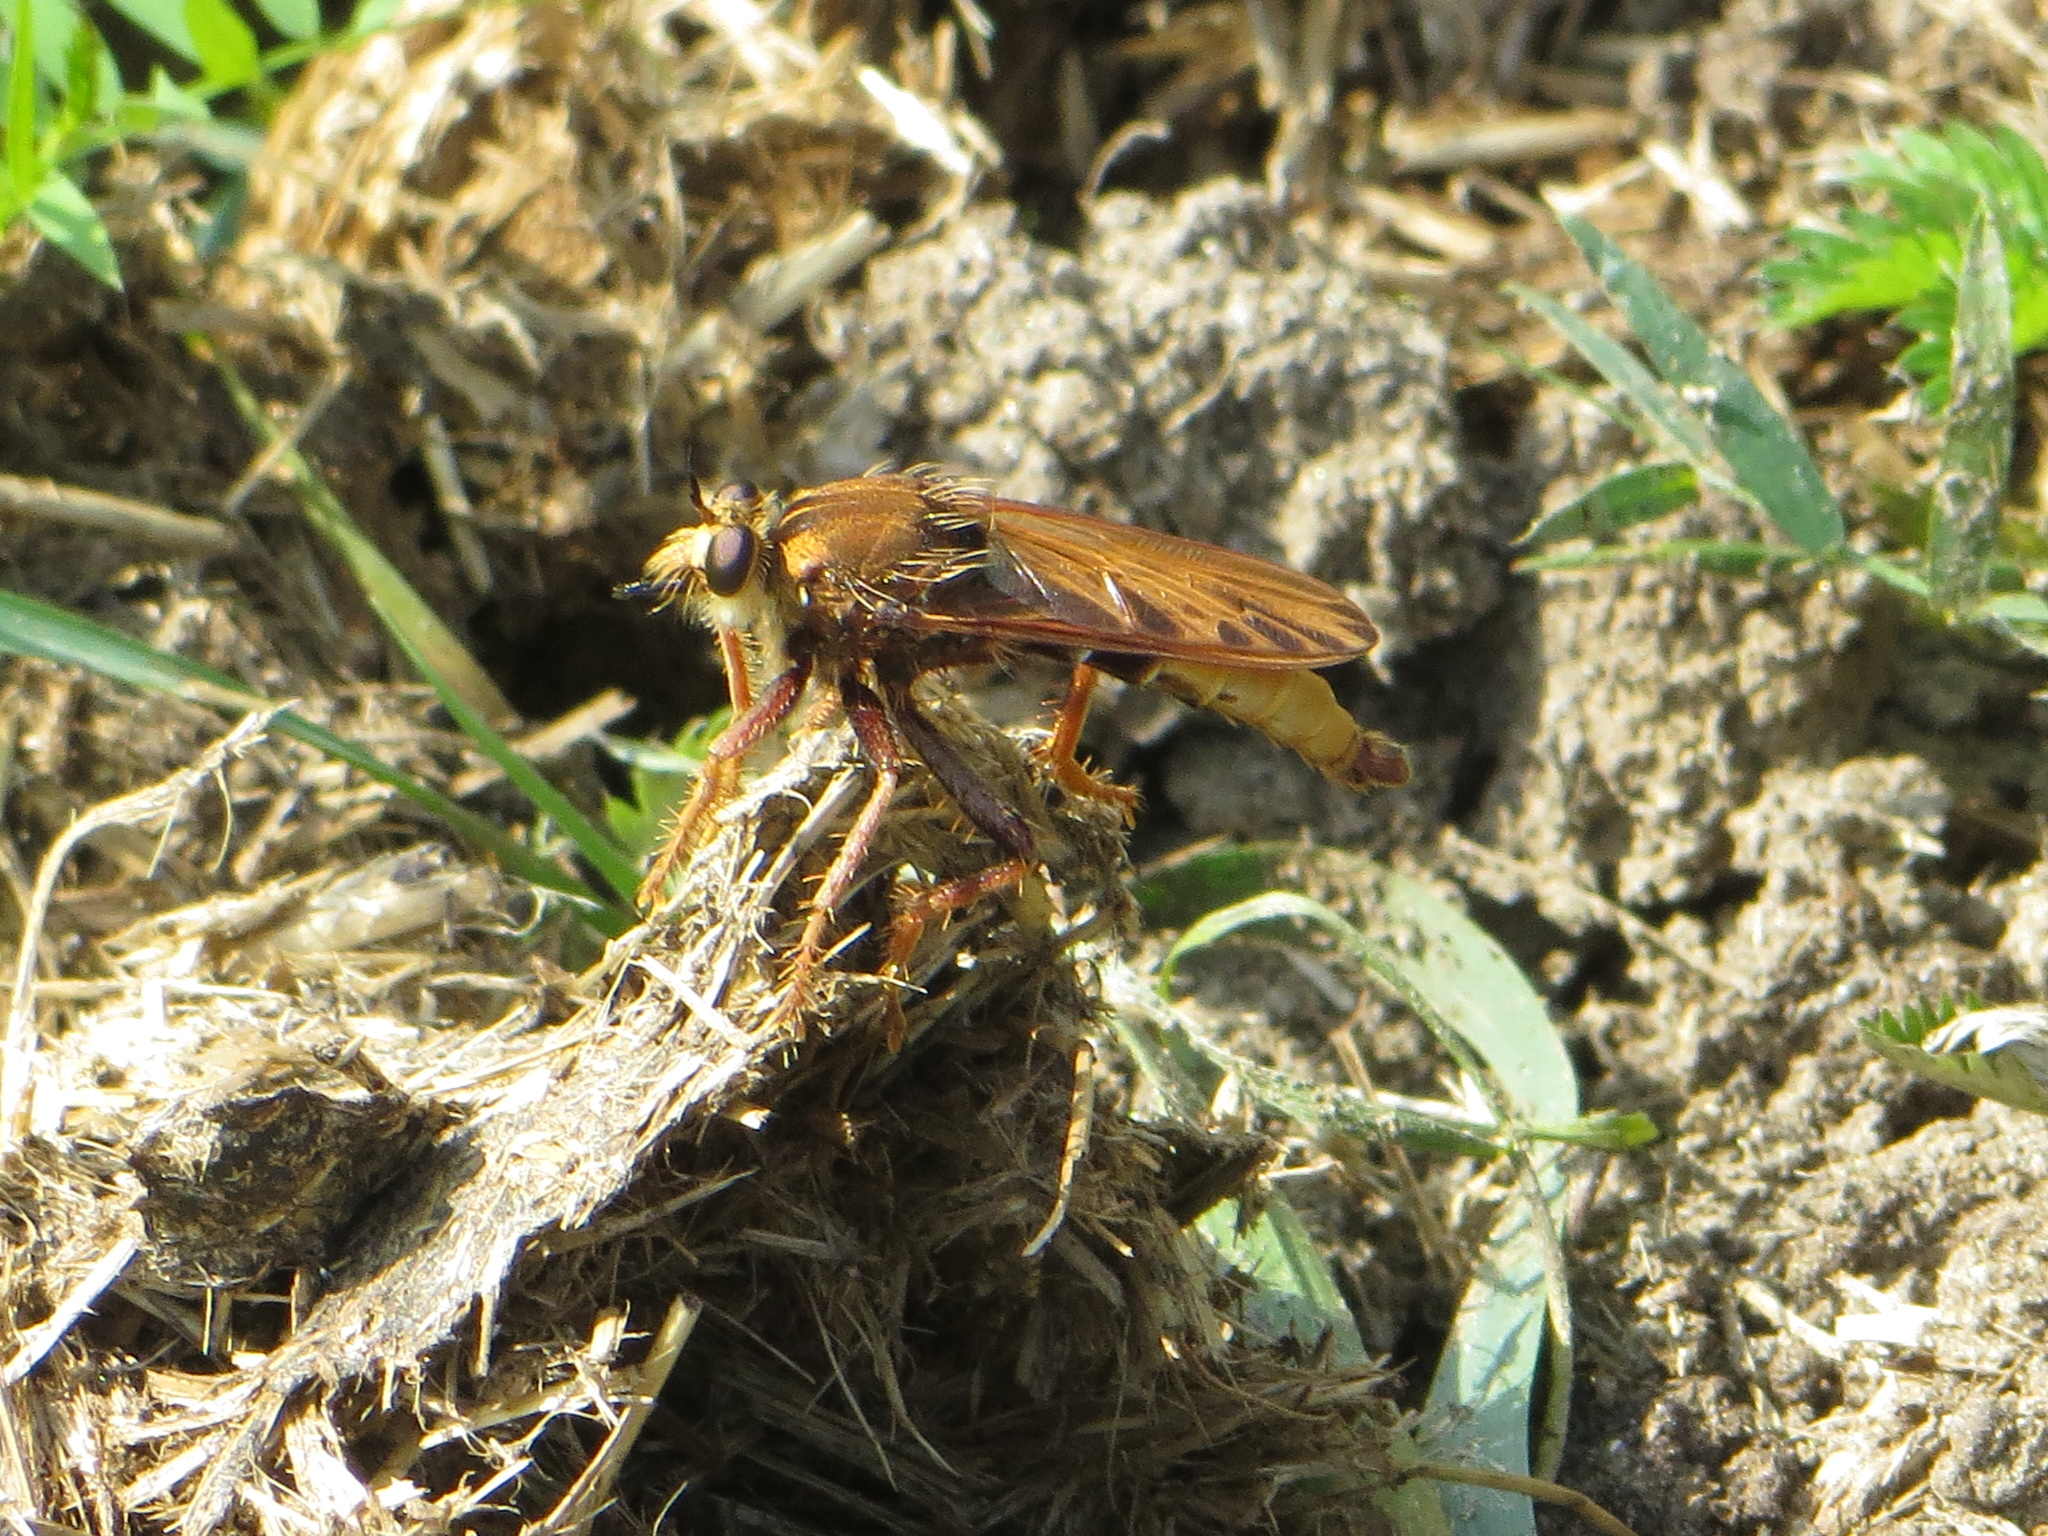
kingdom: Animalia
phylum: Arthropoda
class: Insecta
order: Diptera
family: Asilidae
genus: Asilus
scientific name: Asilus crabroniformis
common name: Hornet robberfly
